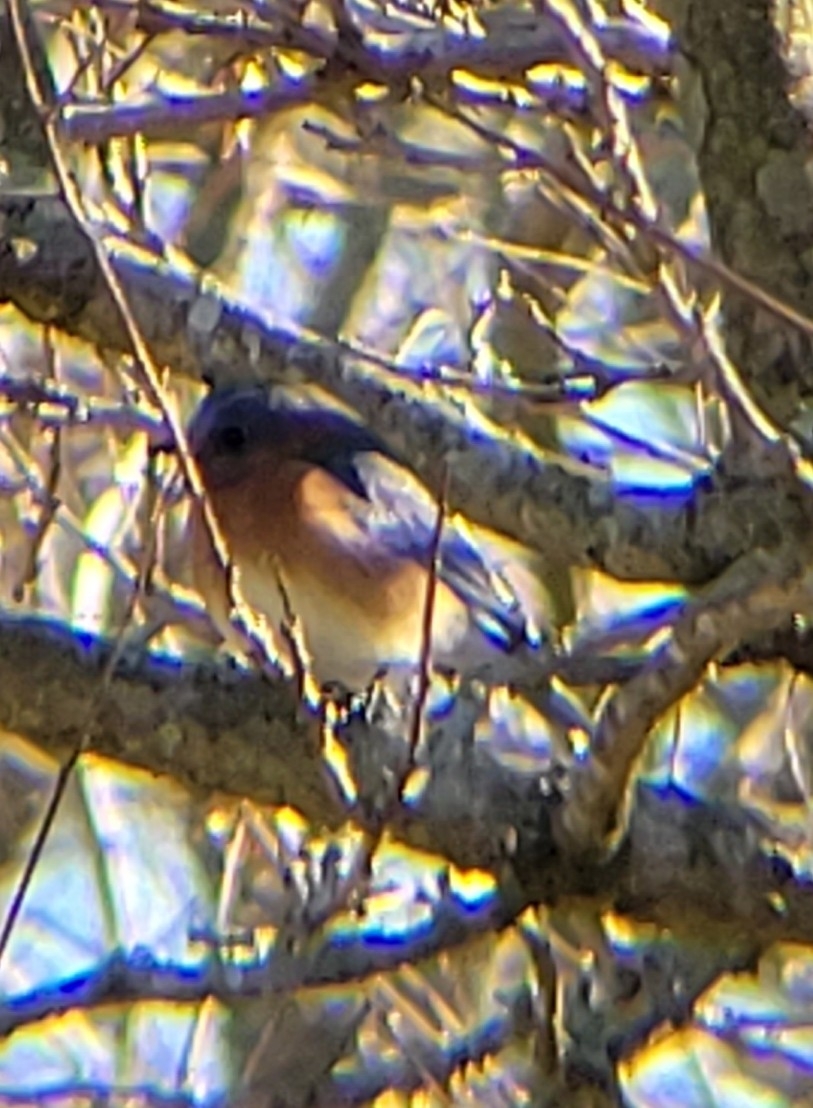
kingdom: Animalia
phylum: Chordata
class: Aves
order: Passeriformes
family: Turdidae
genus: Sialia
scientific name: Sialia sialis
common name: Eastern bluebird
